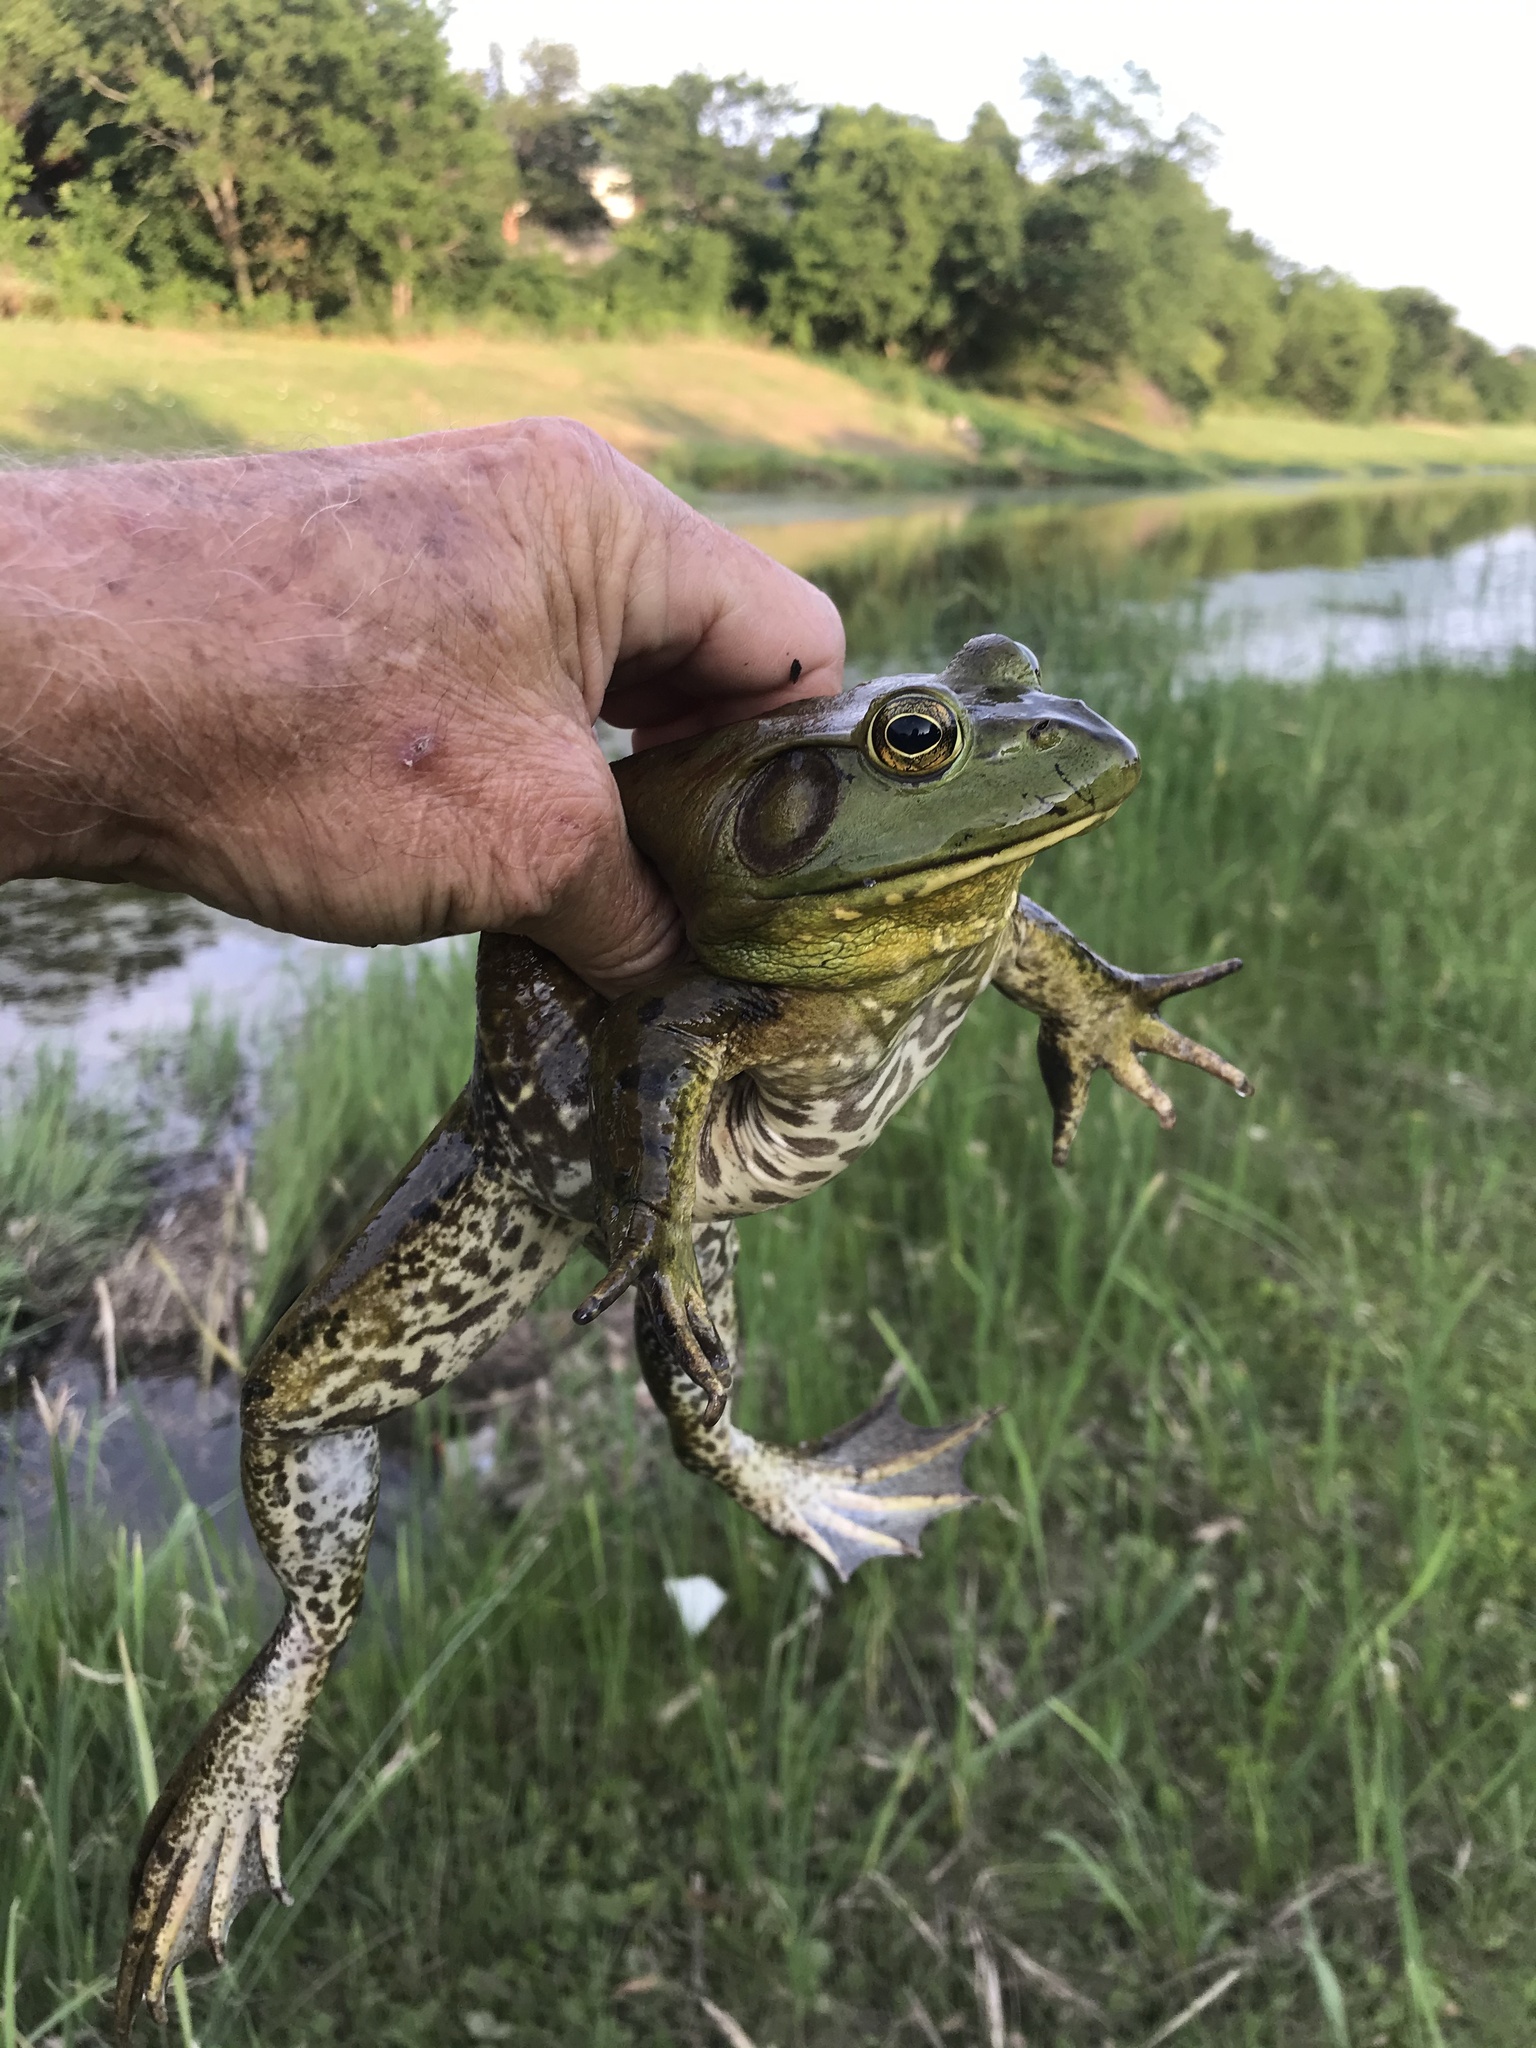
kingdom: Animalia
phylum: Chordata
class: Amphibia
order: Anura
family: Ranidae
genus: Lithobates
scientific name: Lithobates catesbeianus
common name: American bullfrog
